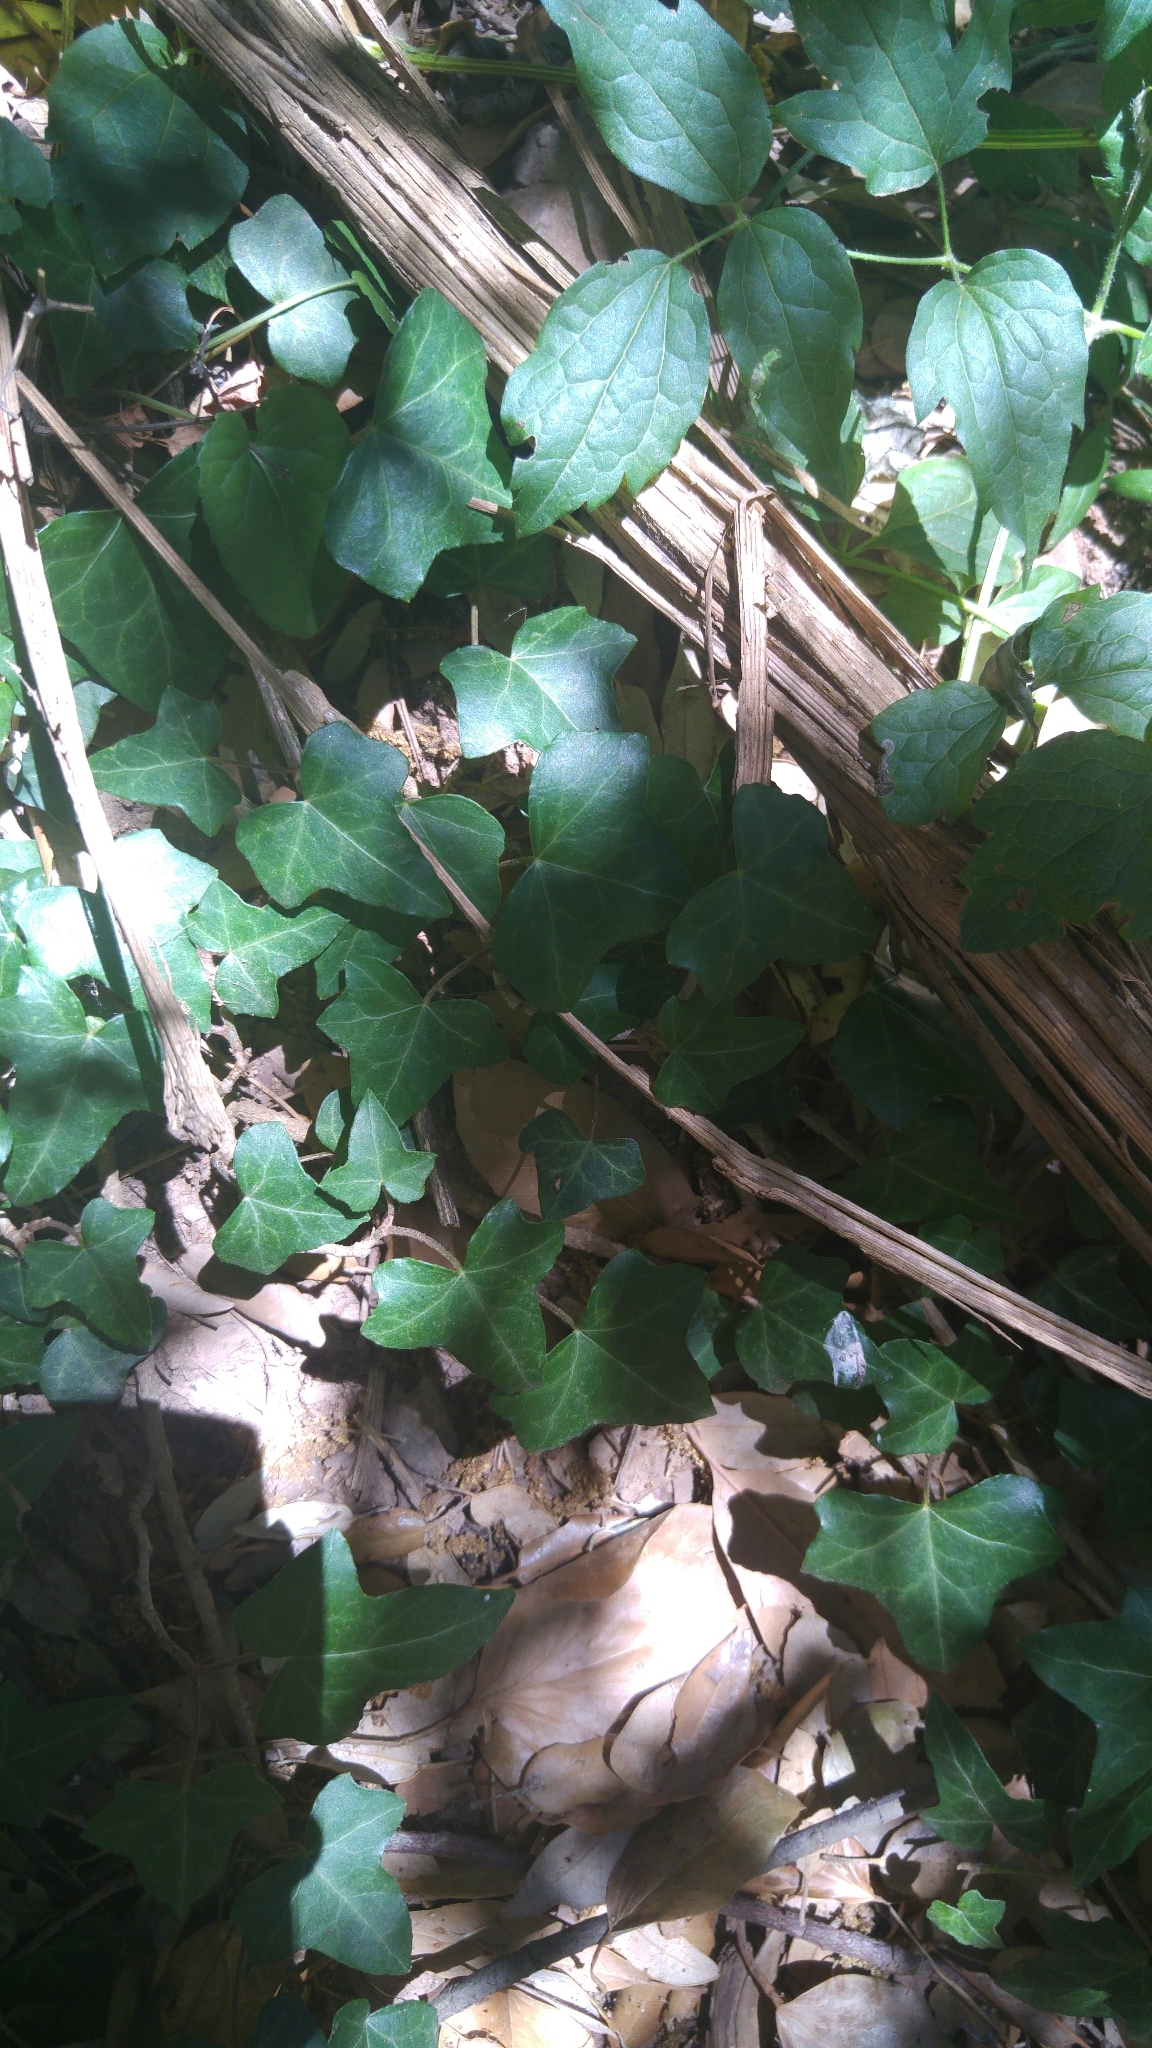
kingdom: Plantae
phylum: Tracheophyta
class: Magnoliopsida
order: Apiales
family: Araliaceae
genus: Hedera
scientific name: Hedera helix
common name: Ivy
